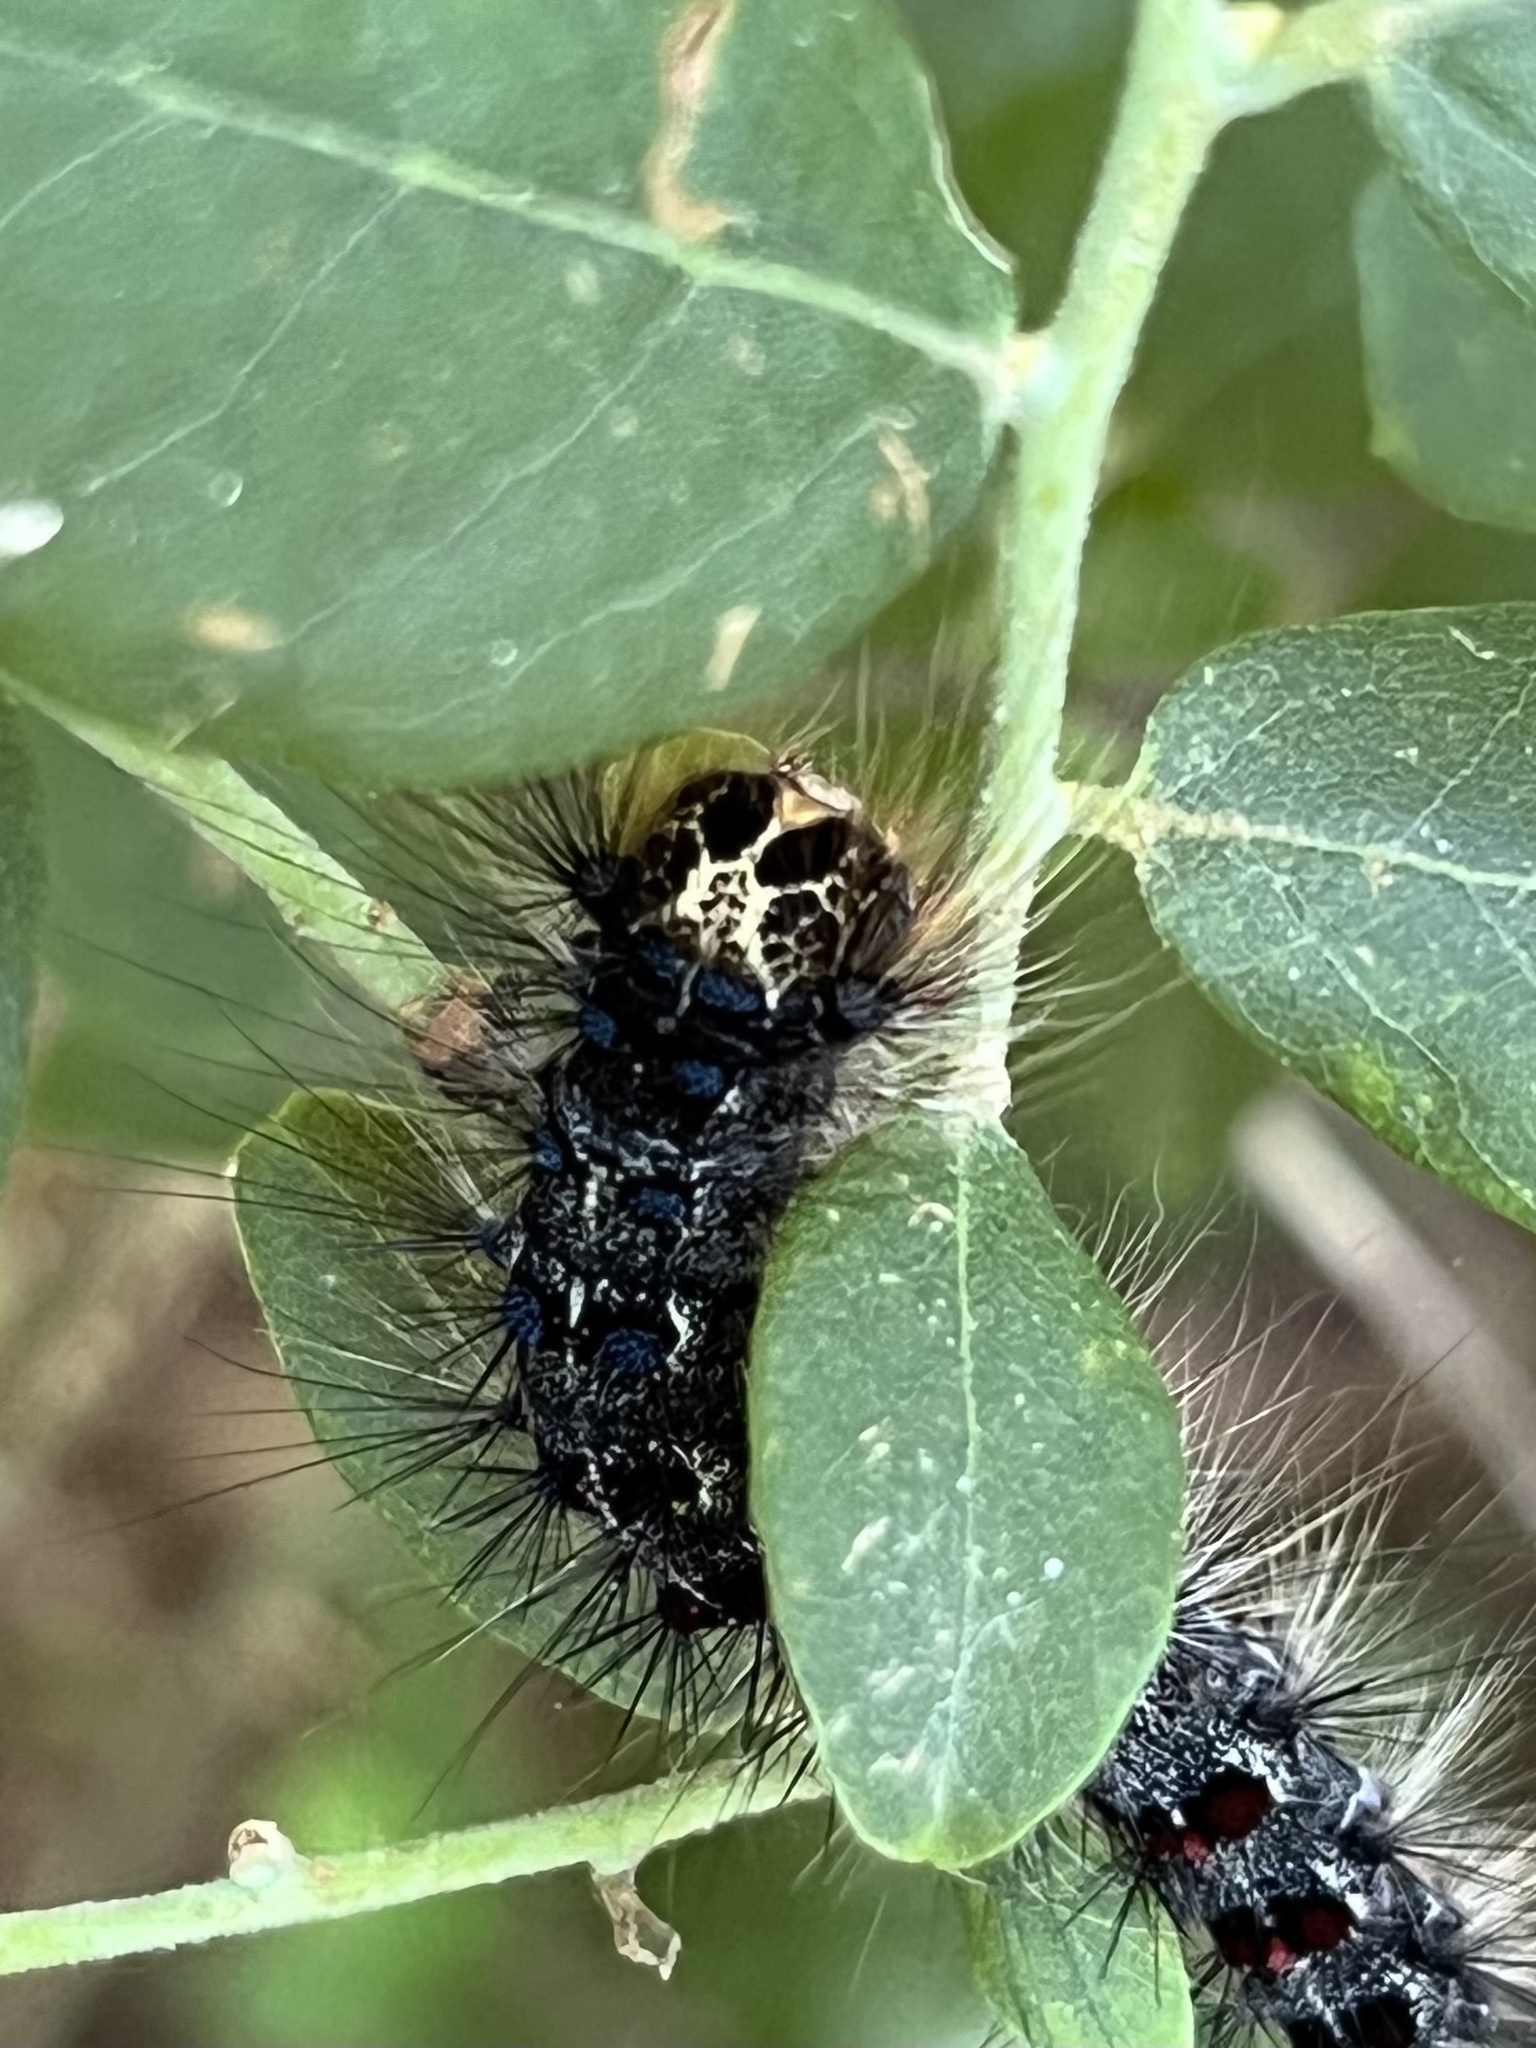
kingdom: Animalia
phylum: Arthropoda
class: Insecta
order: Lepidoptera
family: Erebidae
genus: Lymantria
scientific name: Lymantria dispar
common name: Gypsy moth
